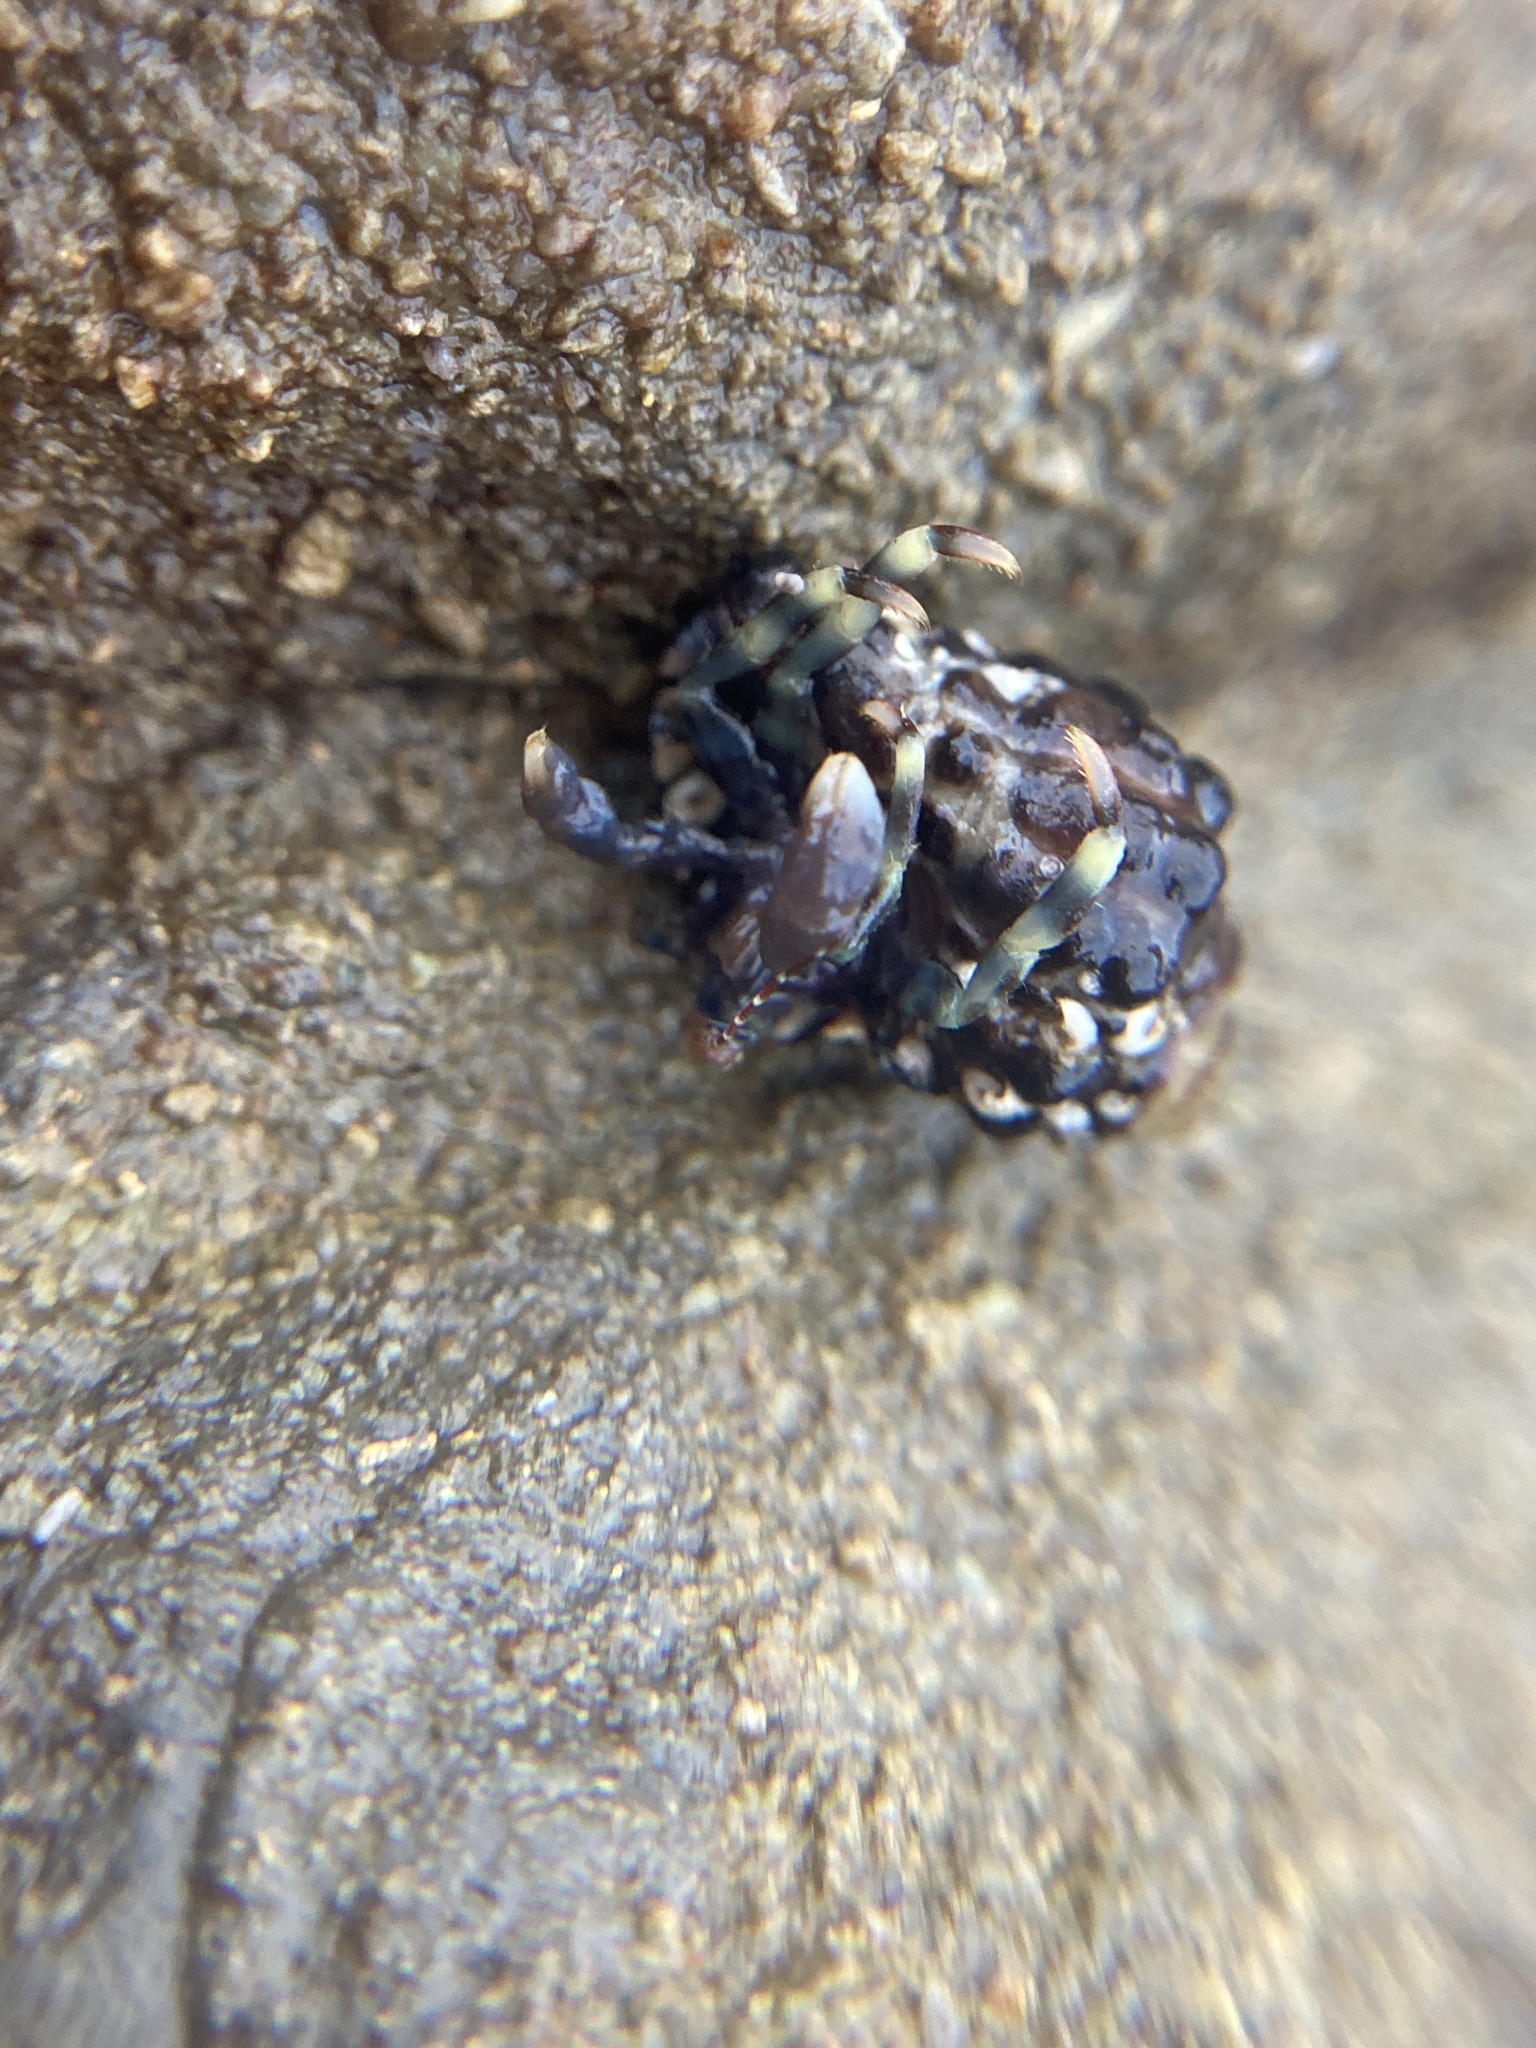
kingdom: Animalia
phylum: Arthropoda
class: Malacostraca
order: Decapoda
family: Paguridae
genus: Pagurixus
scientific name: Pagurixus jerviensis
